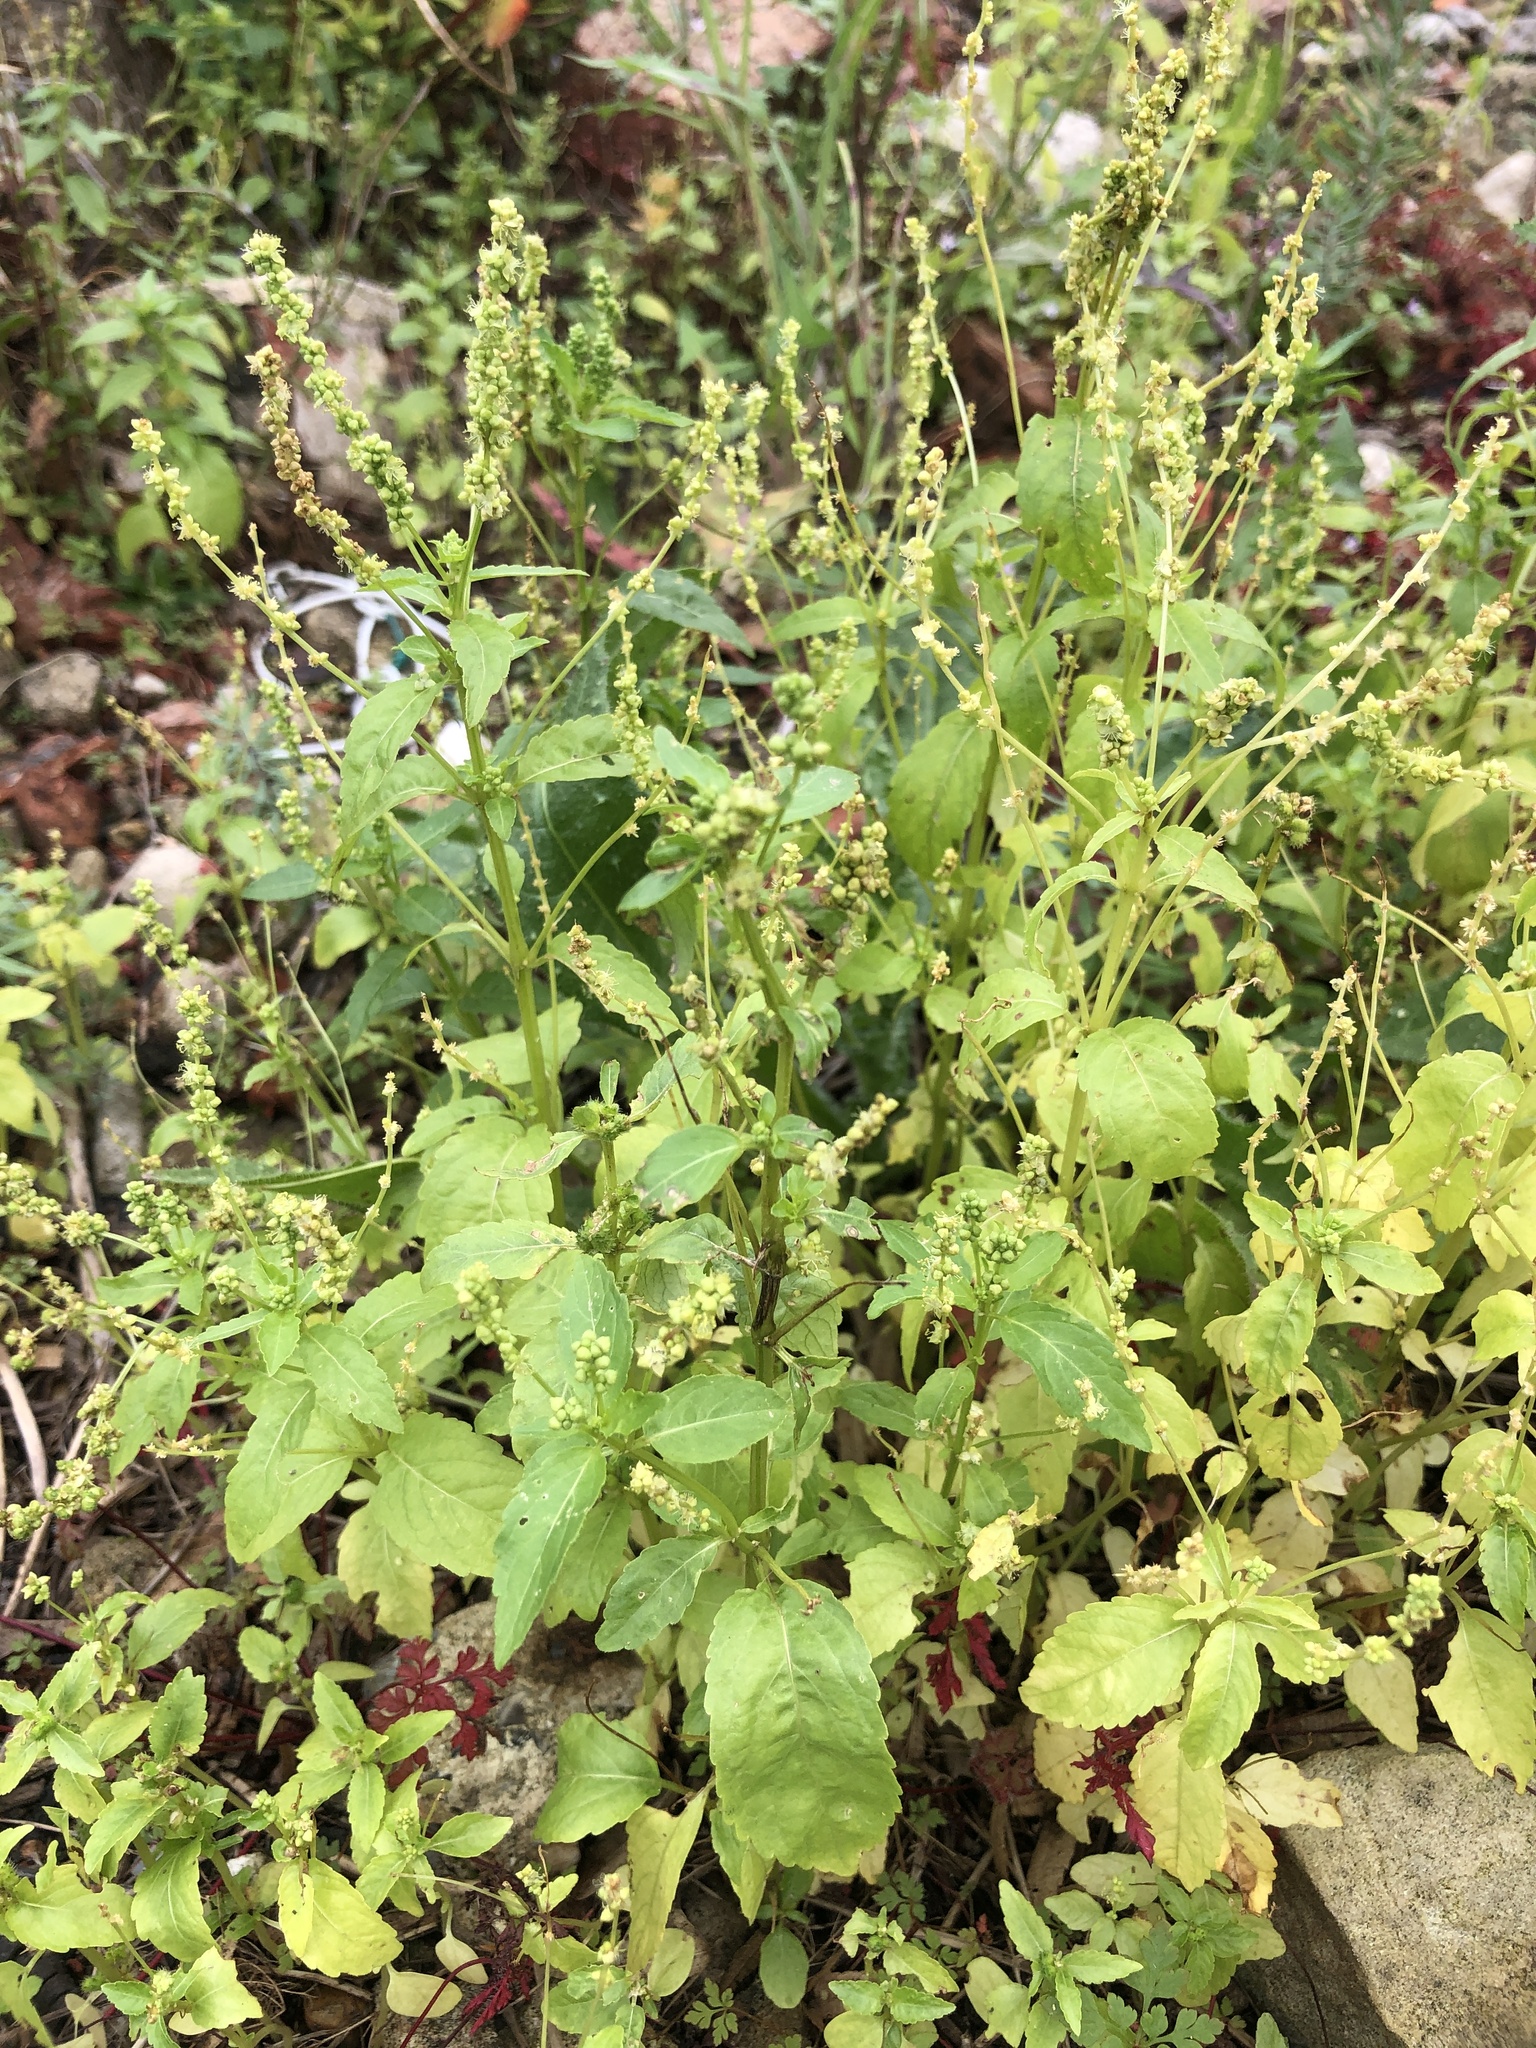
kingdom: Plantae
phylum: Tracheophyta
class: Magnoliopsida
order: Malpighiales
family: Euphorbiaceae
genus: Mercurialis
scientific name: Mercurialis annua
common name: Annual mercury
